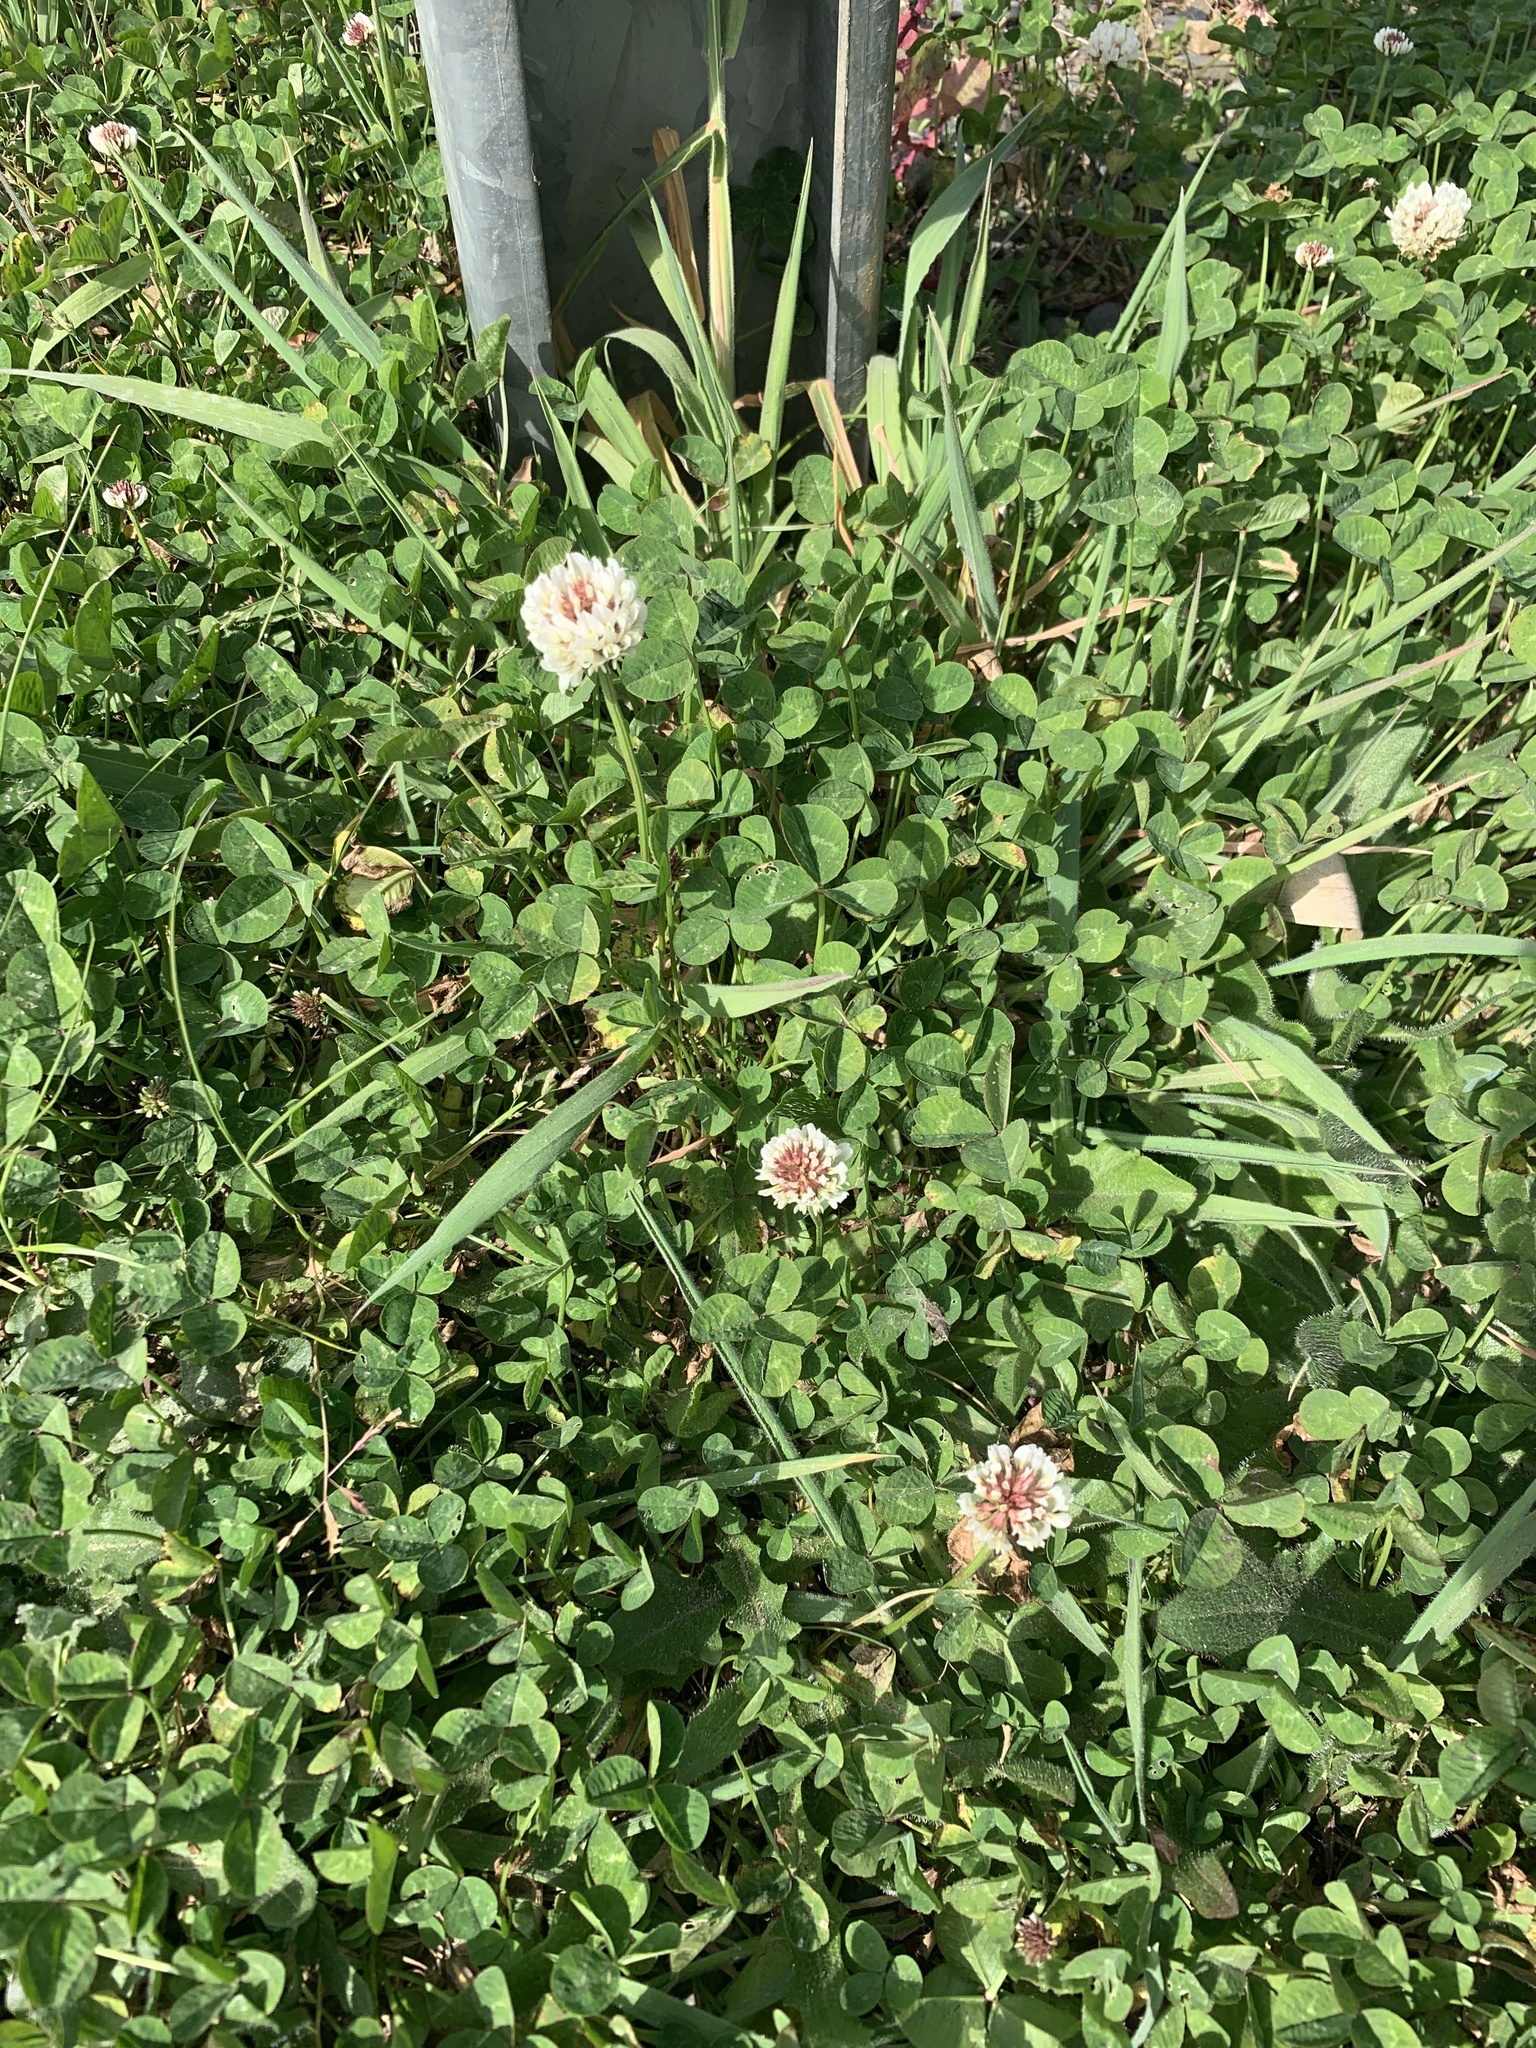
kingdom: Plantae
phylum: Tracheophyta
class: Magnoliopsida
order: Fabales
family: Fabaceae
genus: Trifolium
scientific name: Trifolium repens
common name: White clover
